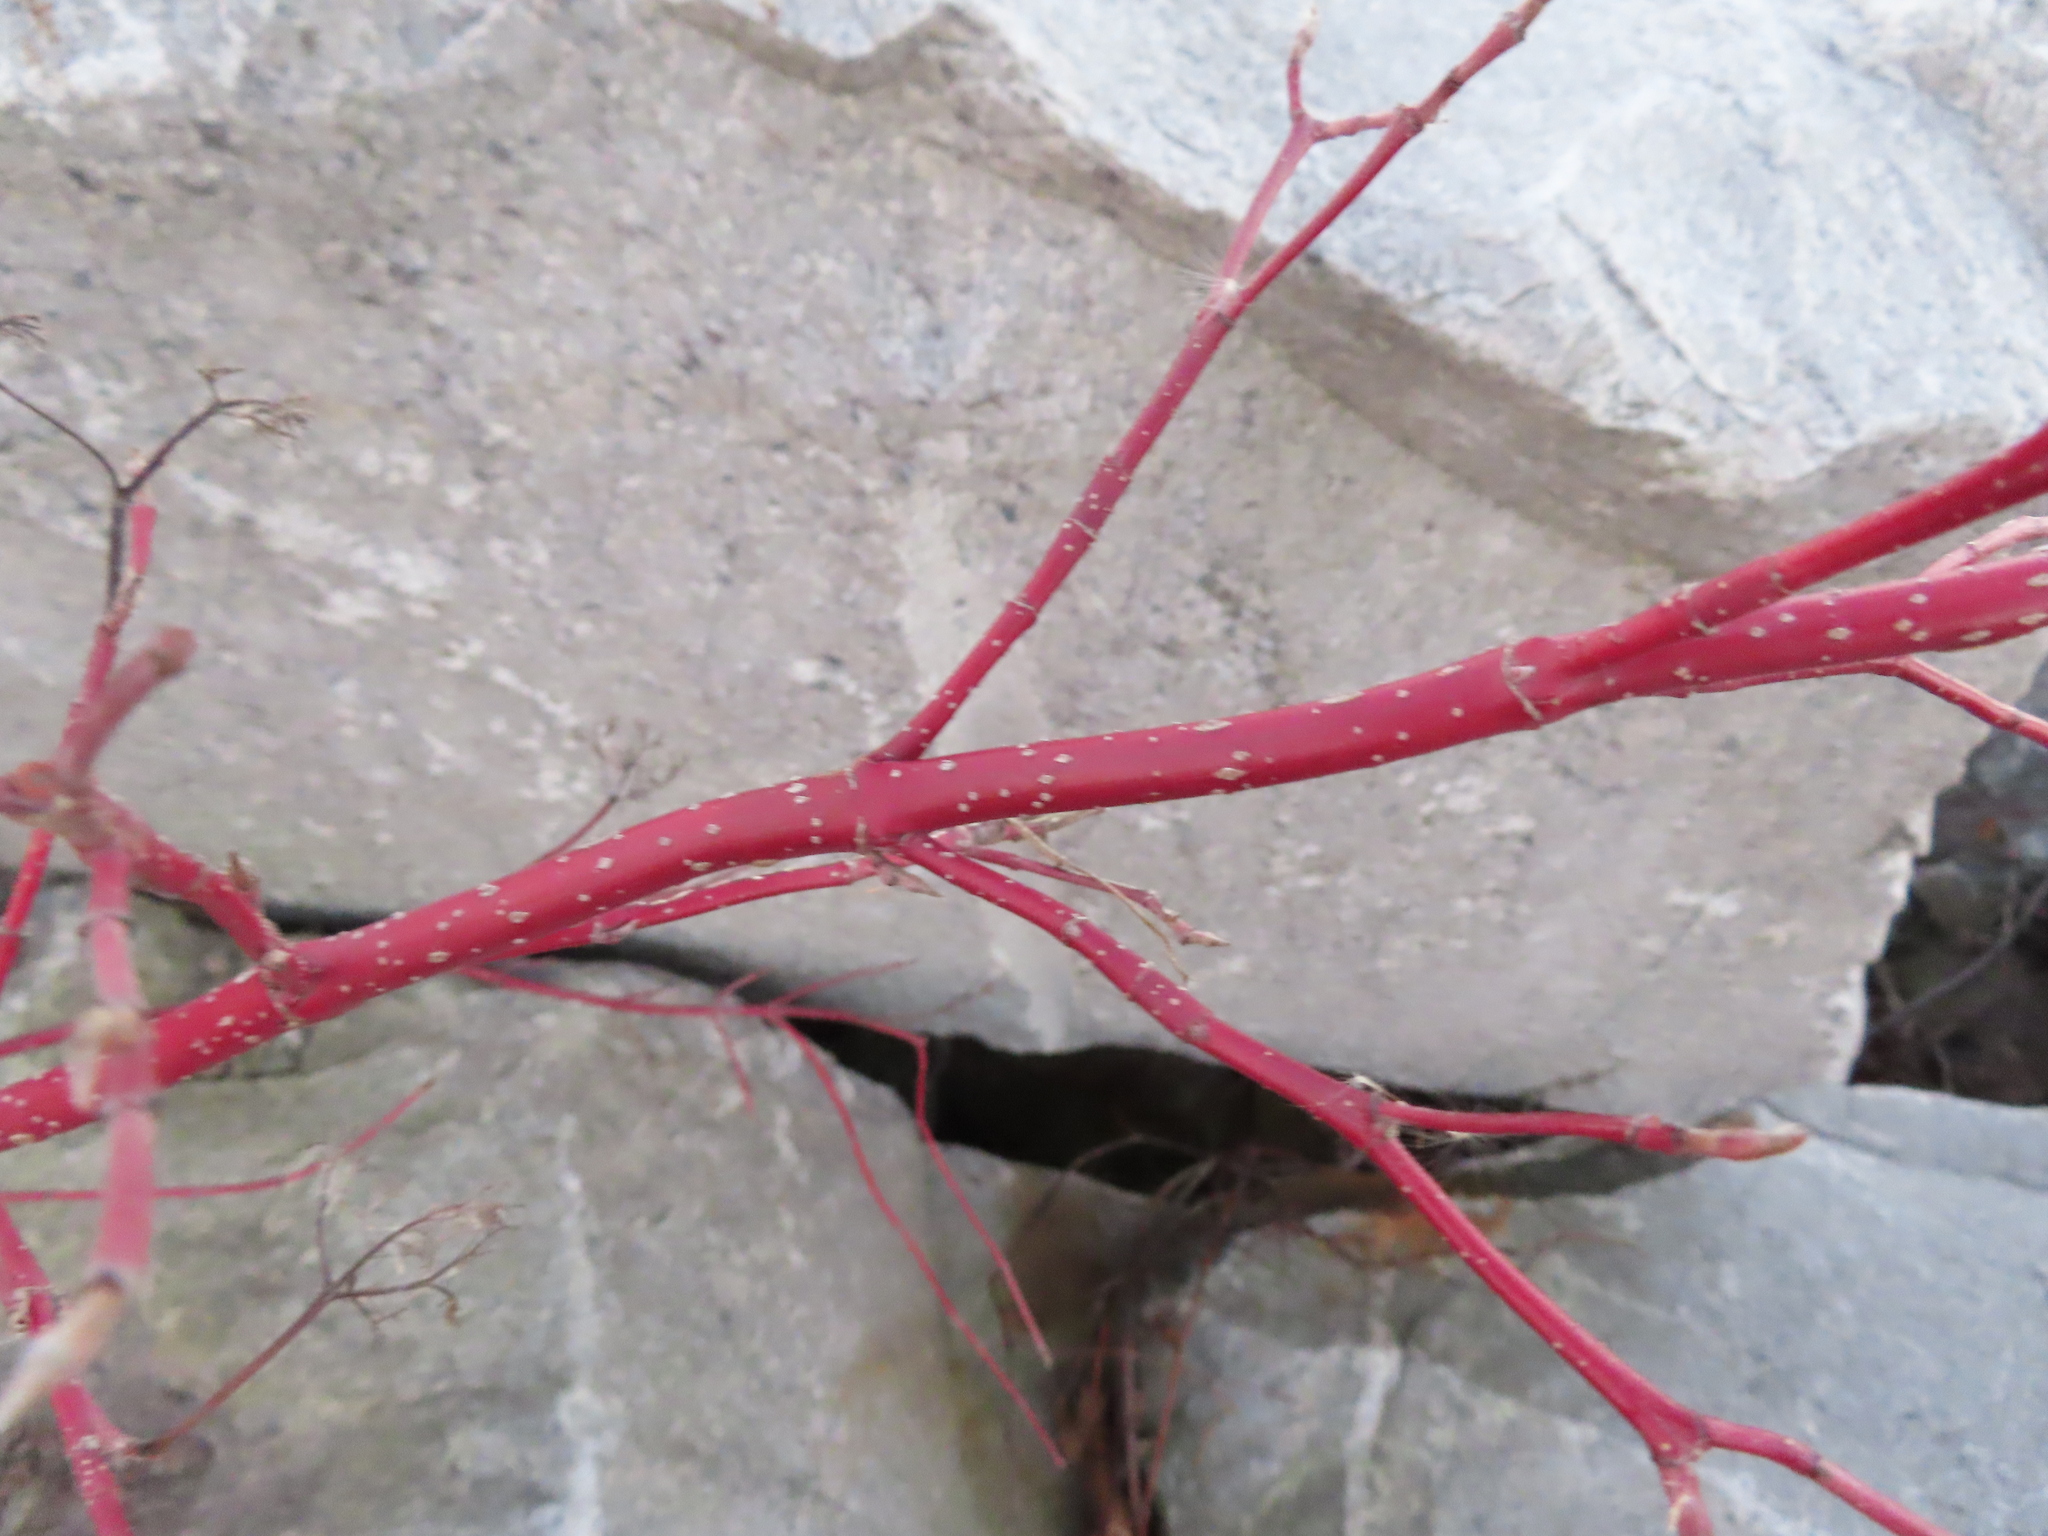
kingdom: Plantae
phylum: Tracheophyta
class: Magnoliopsida
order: Cornales
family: Cornaceae
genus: Cornus
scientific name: Cornus sericea
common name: Red-osier dogwood
